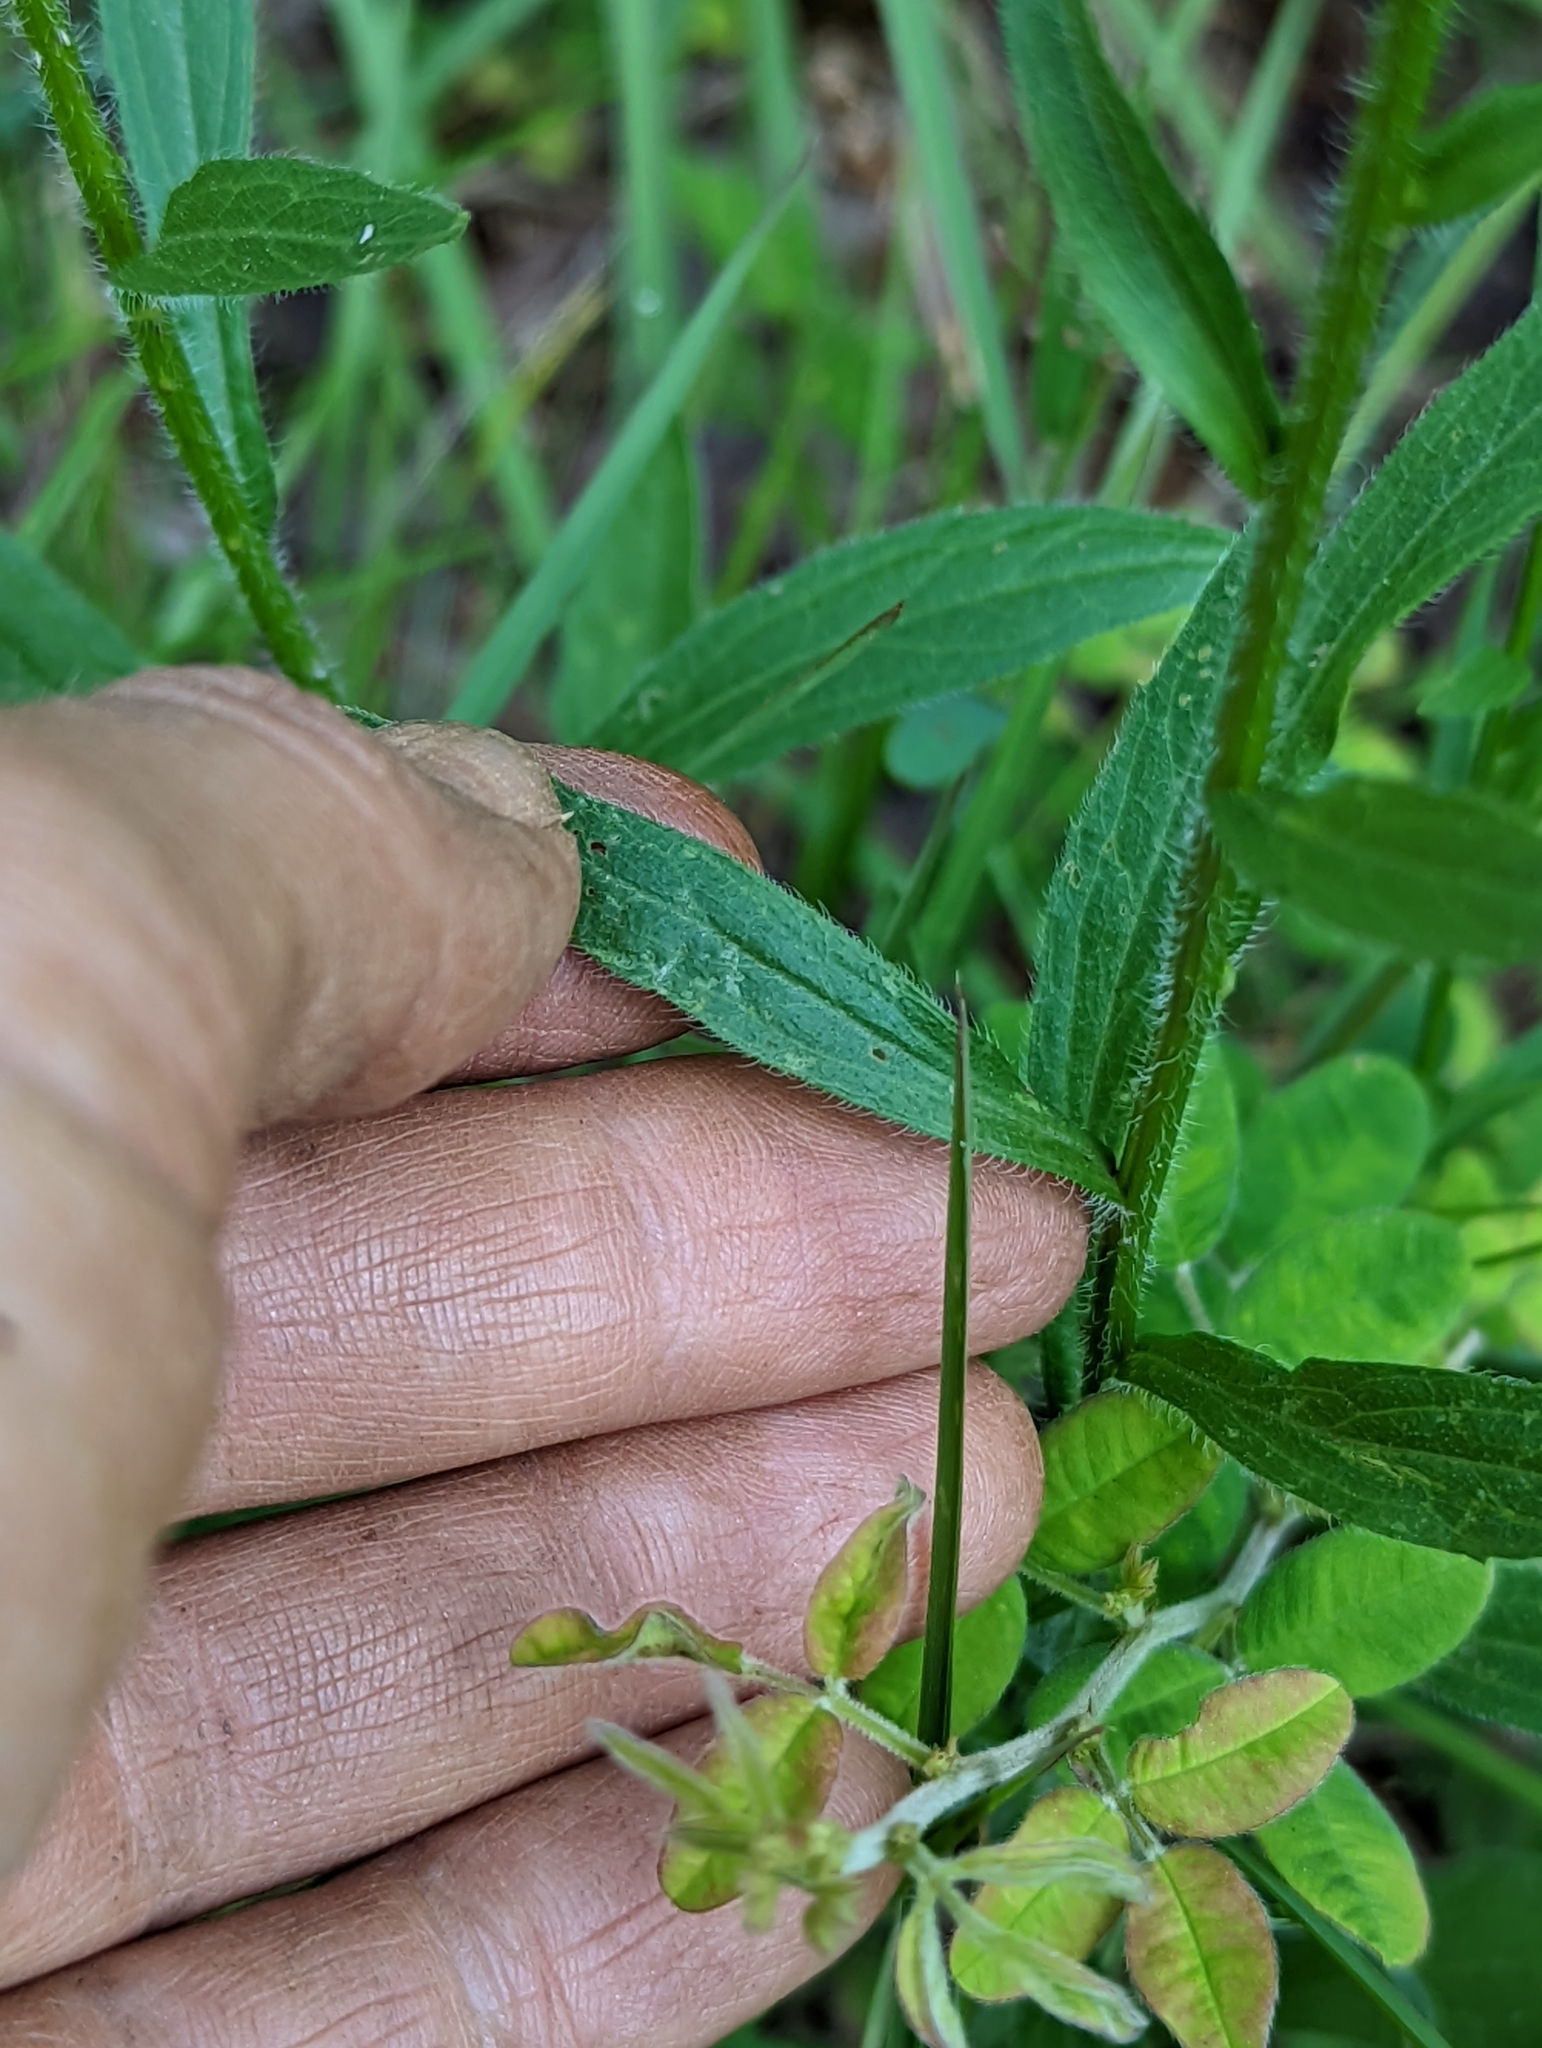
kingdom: Plantae
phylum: Tracheophyta
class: Magnoliopsida
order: Asterales
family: Asteraceae
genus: Erigeron
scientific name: Erigeron annuus
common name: Tall fleabane
